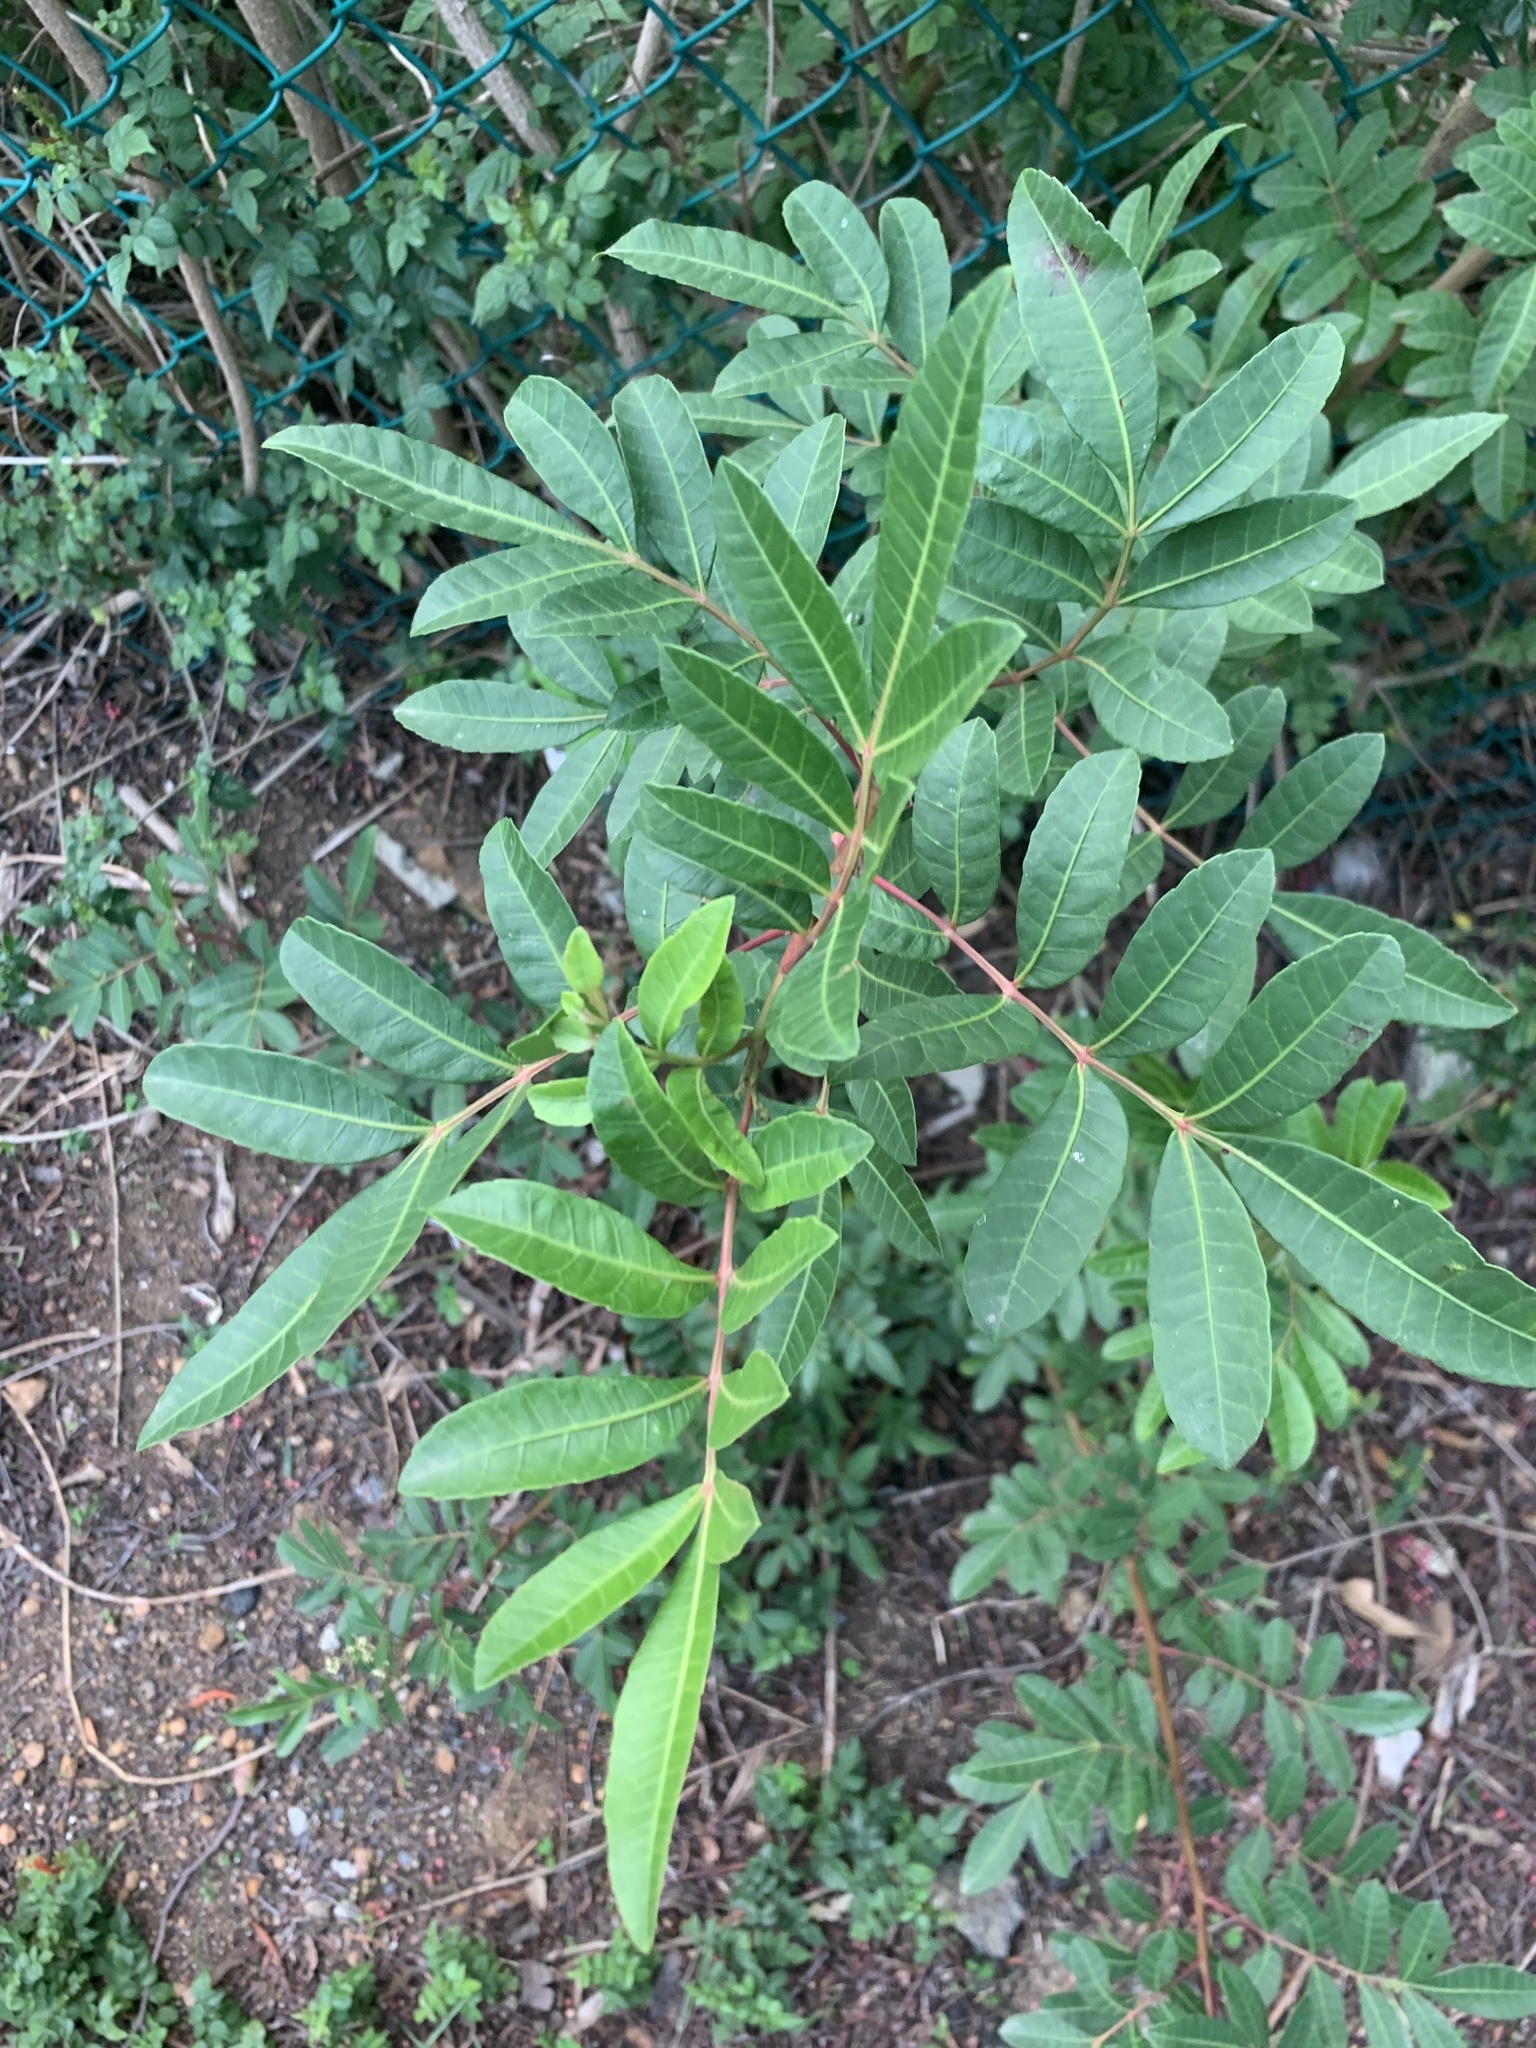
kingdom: Plantae
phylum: Tracheophyta
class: Magnoliopsida
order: Sapindales
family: Anacardiaceae
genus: Schinus
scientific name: Schinus terebinthifolia
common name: Brazilian peppertree
